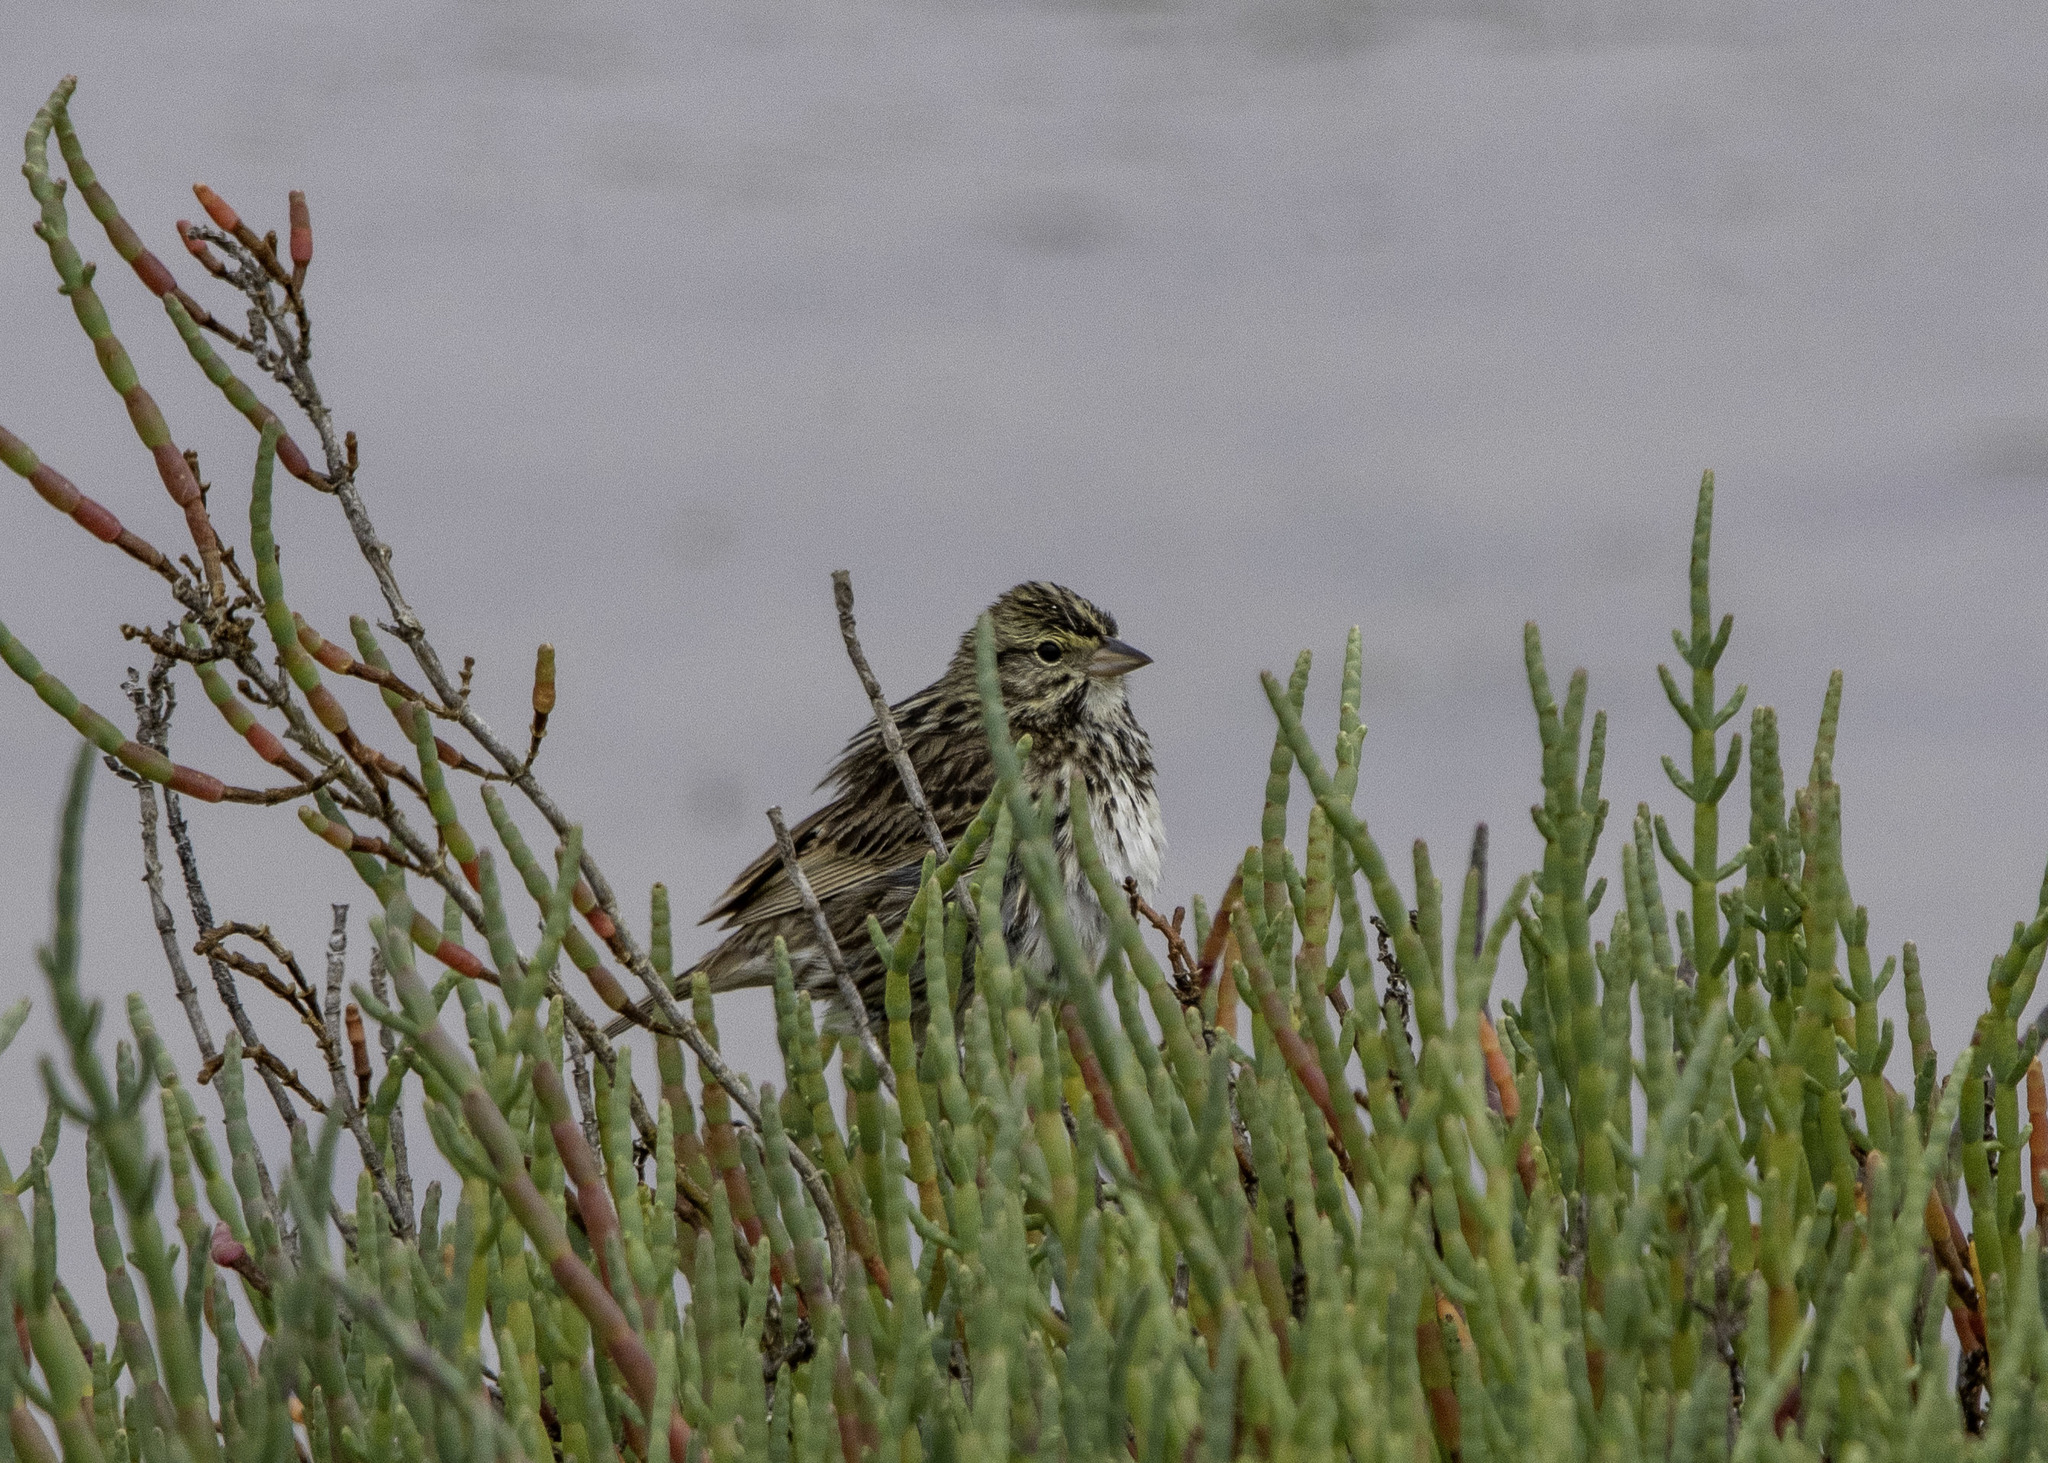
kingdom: Animalia
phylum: Chordata
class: Aves
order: Passeriformes
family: Passerellidae
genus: Passerculus
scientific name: Passerculus sandwichensis
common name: Savannah sparrow
